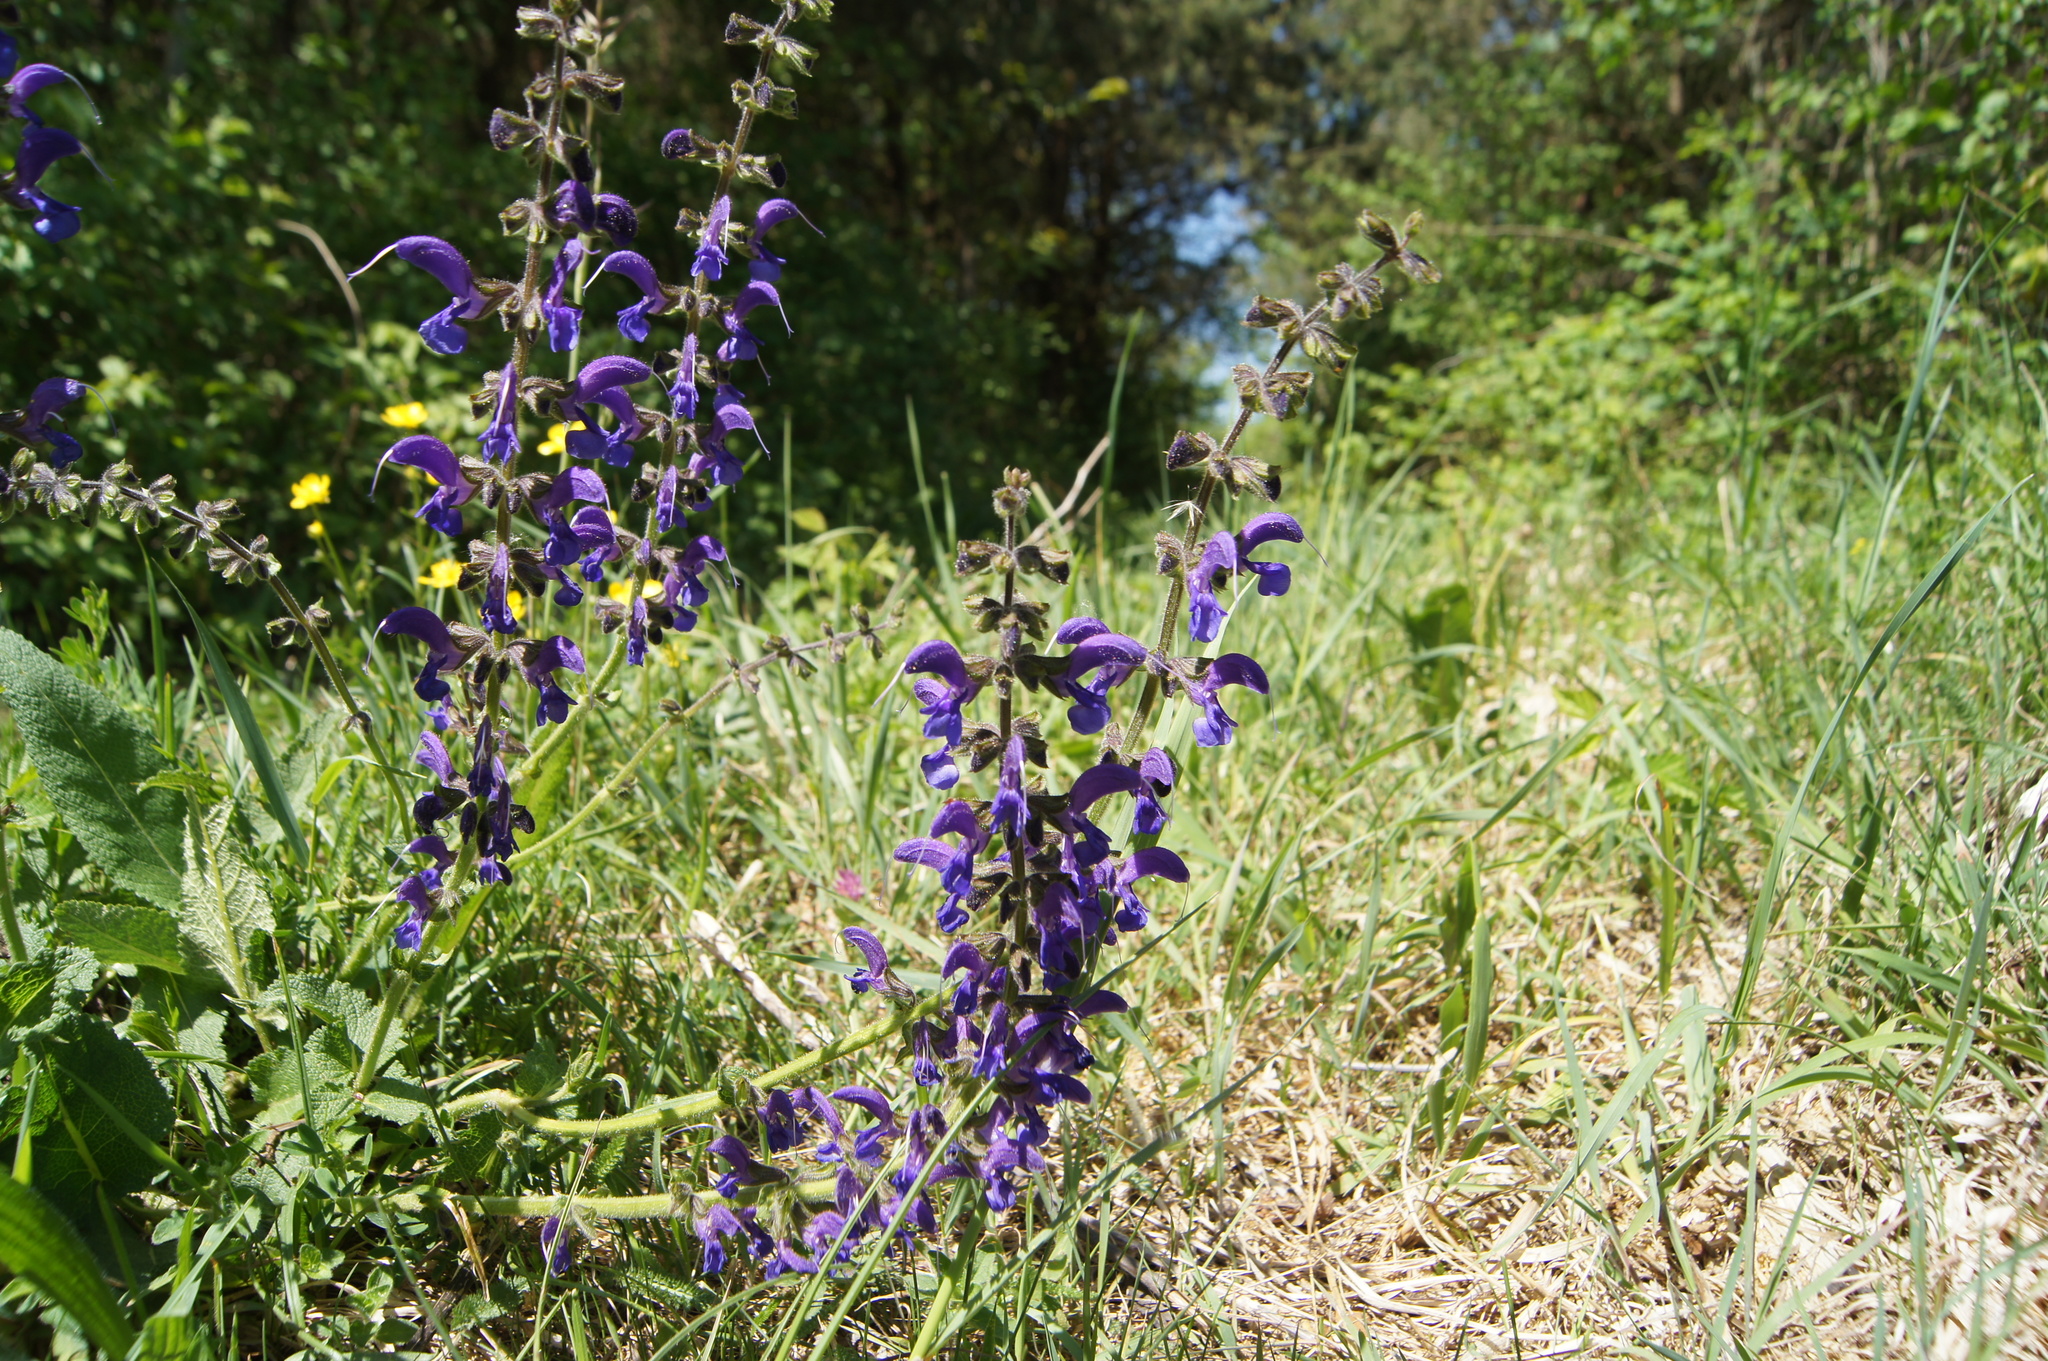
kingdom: Plantae
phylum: Tracheophyta
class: Magnoliopsida
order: Lamiales
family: Lamiaceae
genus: Salvia
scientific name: Salvia pratensis
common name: Meadow sage
